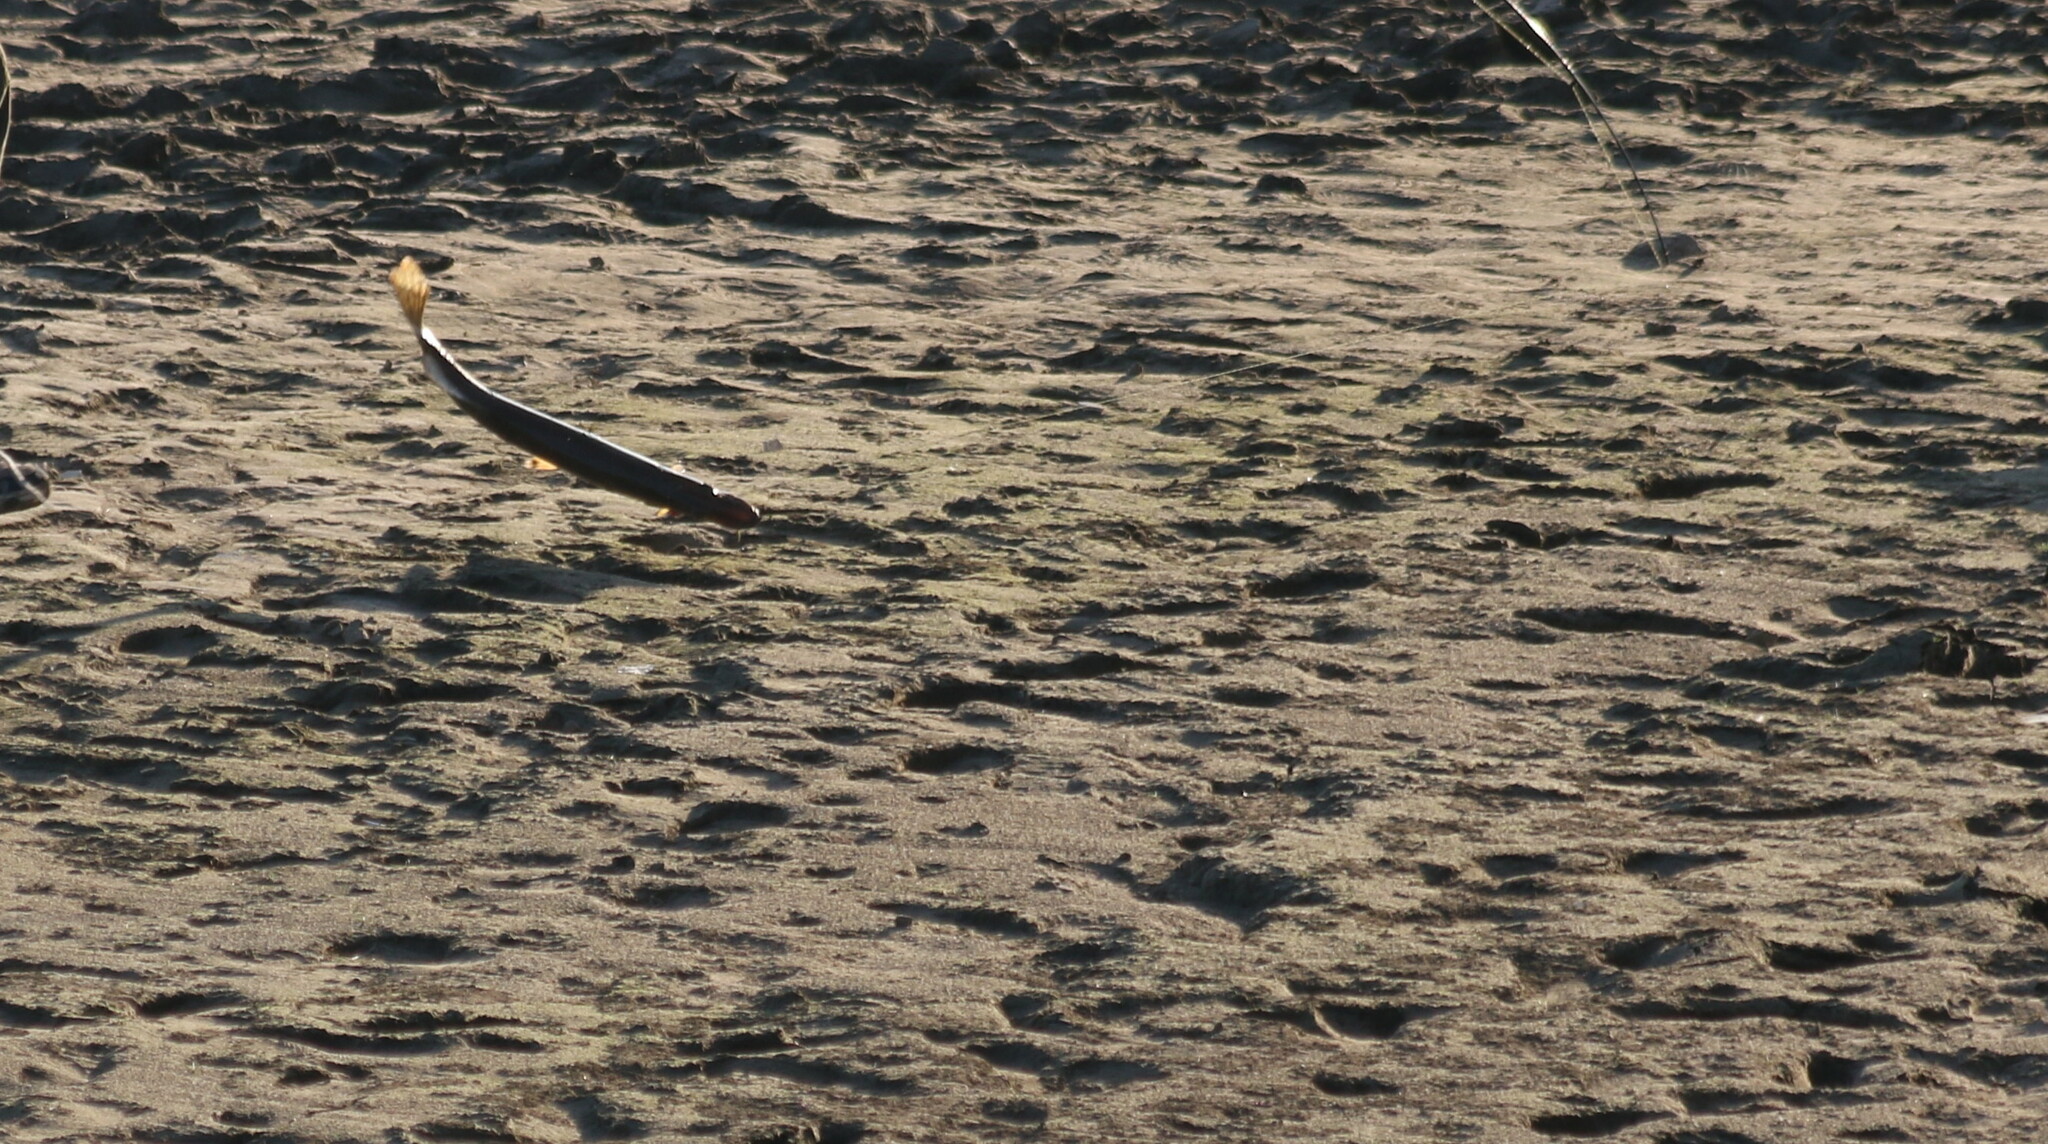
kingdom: Animalia
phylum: Chordata
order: Esociformes
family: Esocidae
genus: Esox
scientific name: Esox lucius
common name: Northern pike
